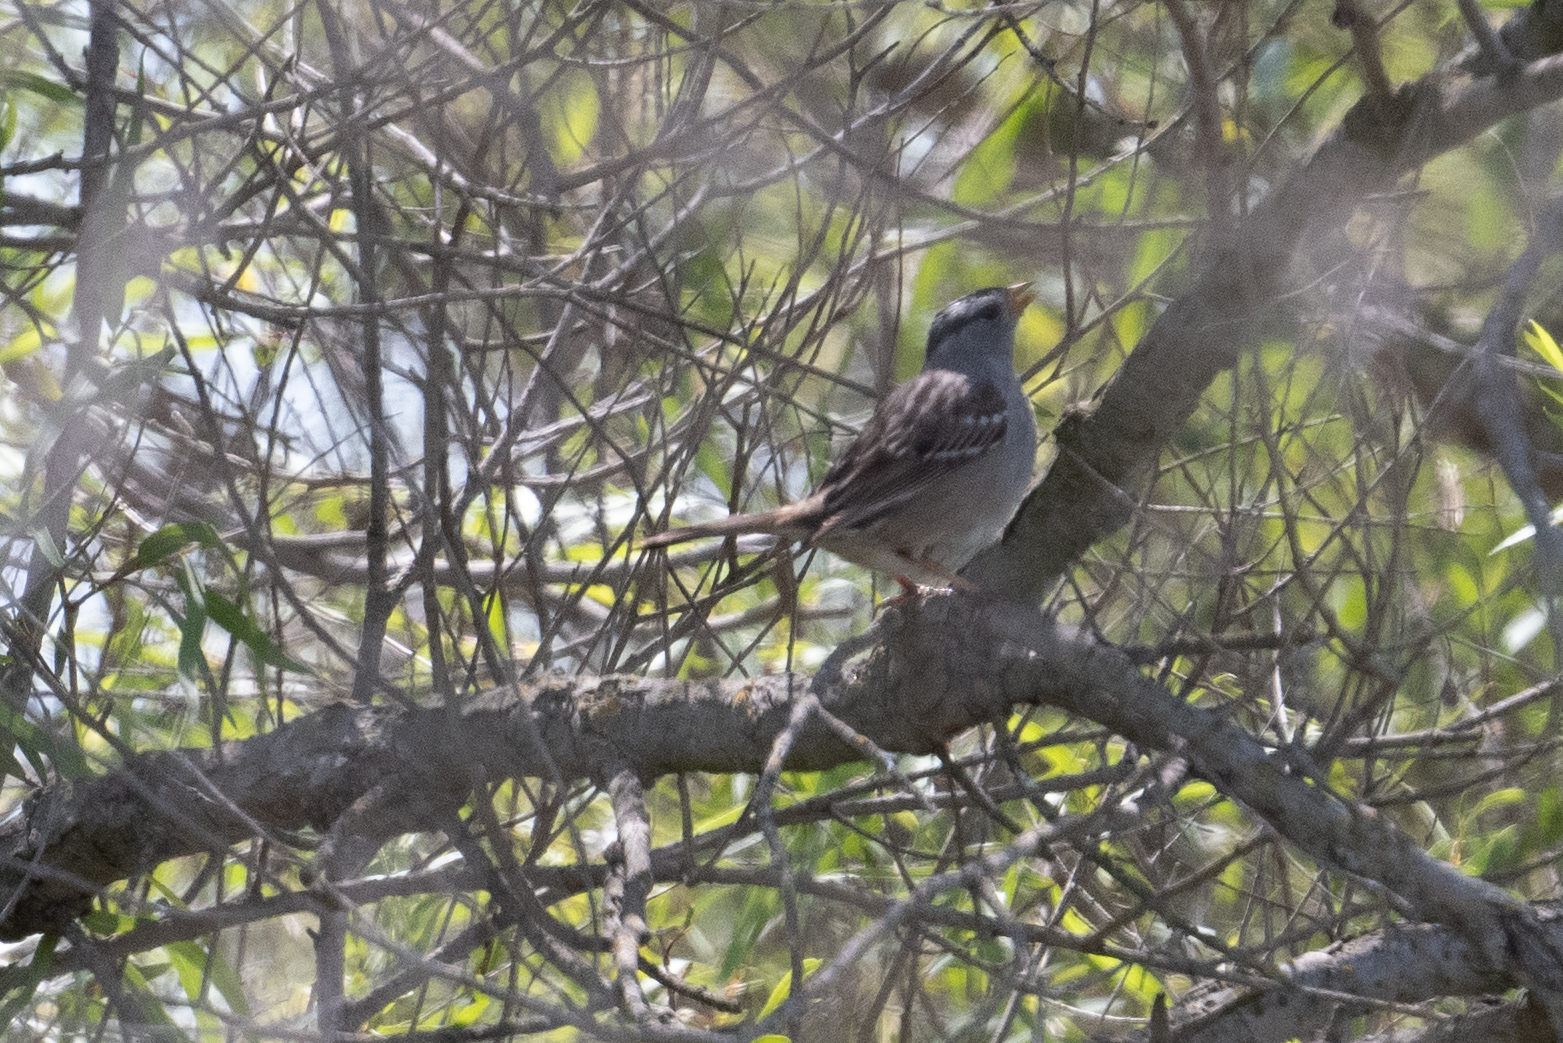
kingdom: Animalia
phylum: Chordata
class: Aves
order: Passeriformes
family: Passerellidae
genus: Zonotrichia
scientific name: Zonotrichia leucophrys
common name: White-crowned sparrow
